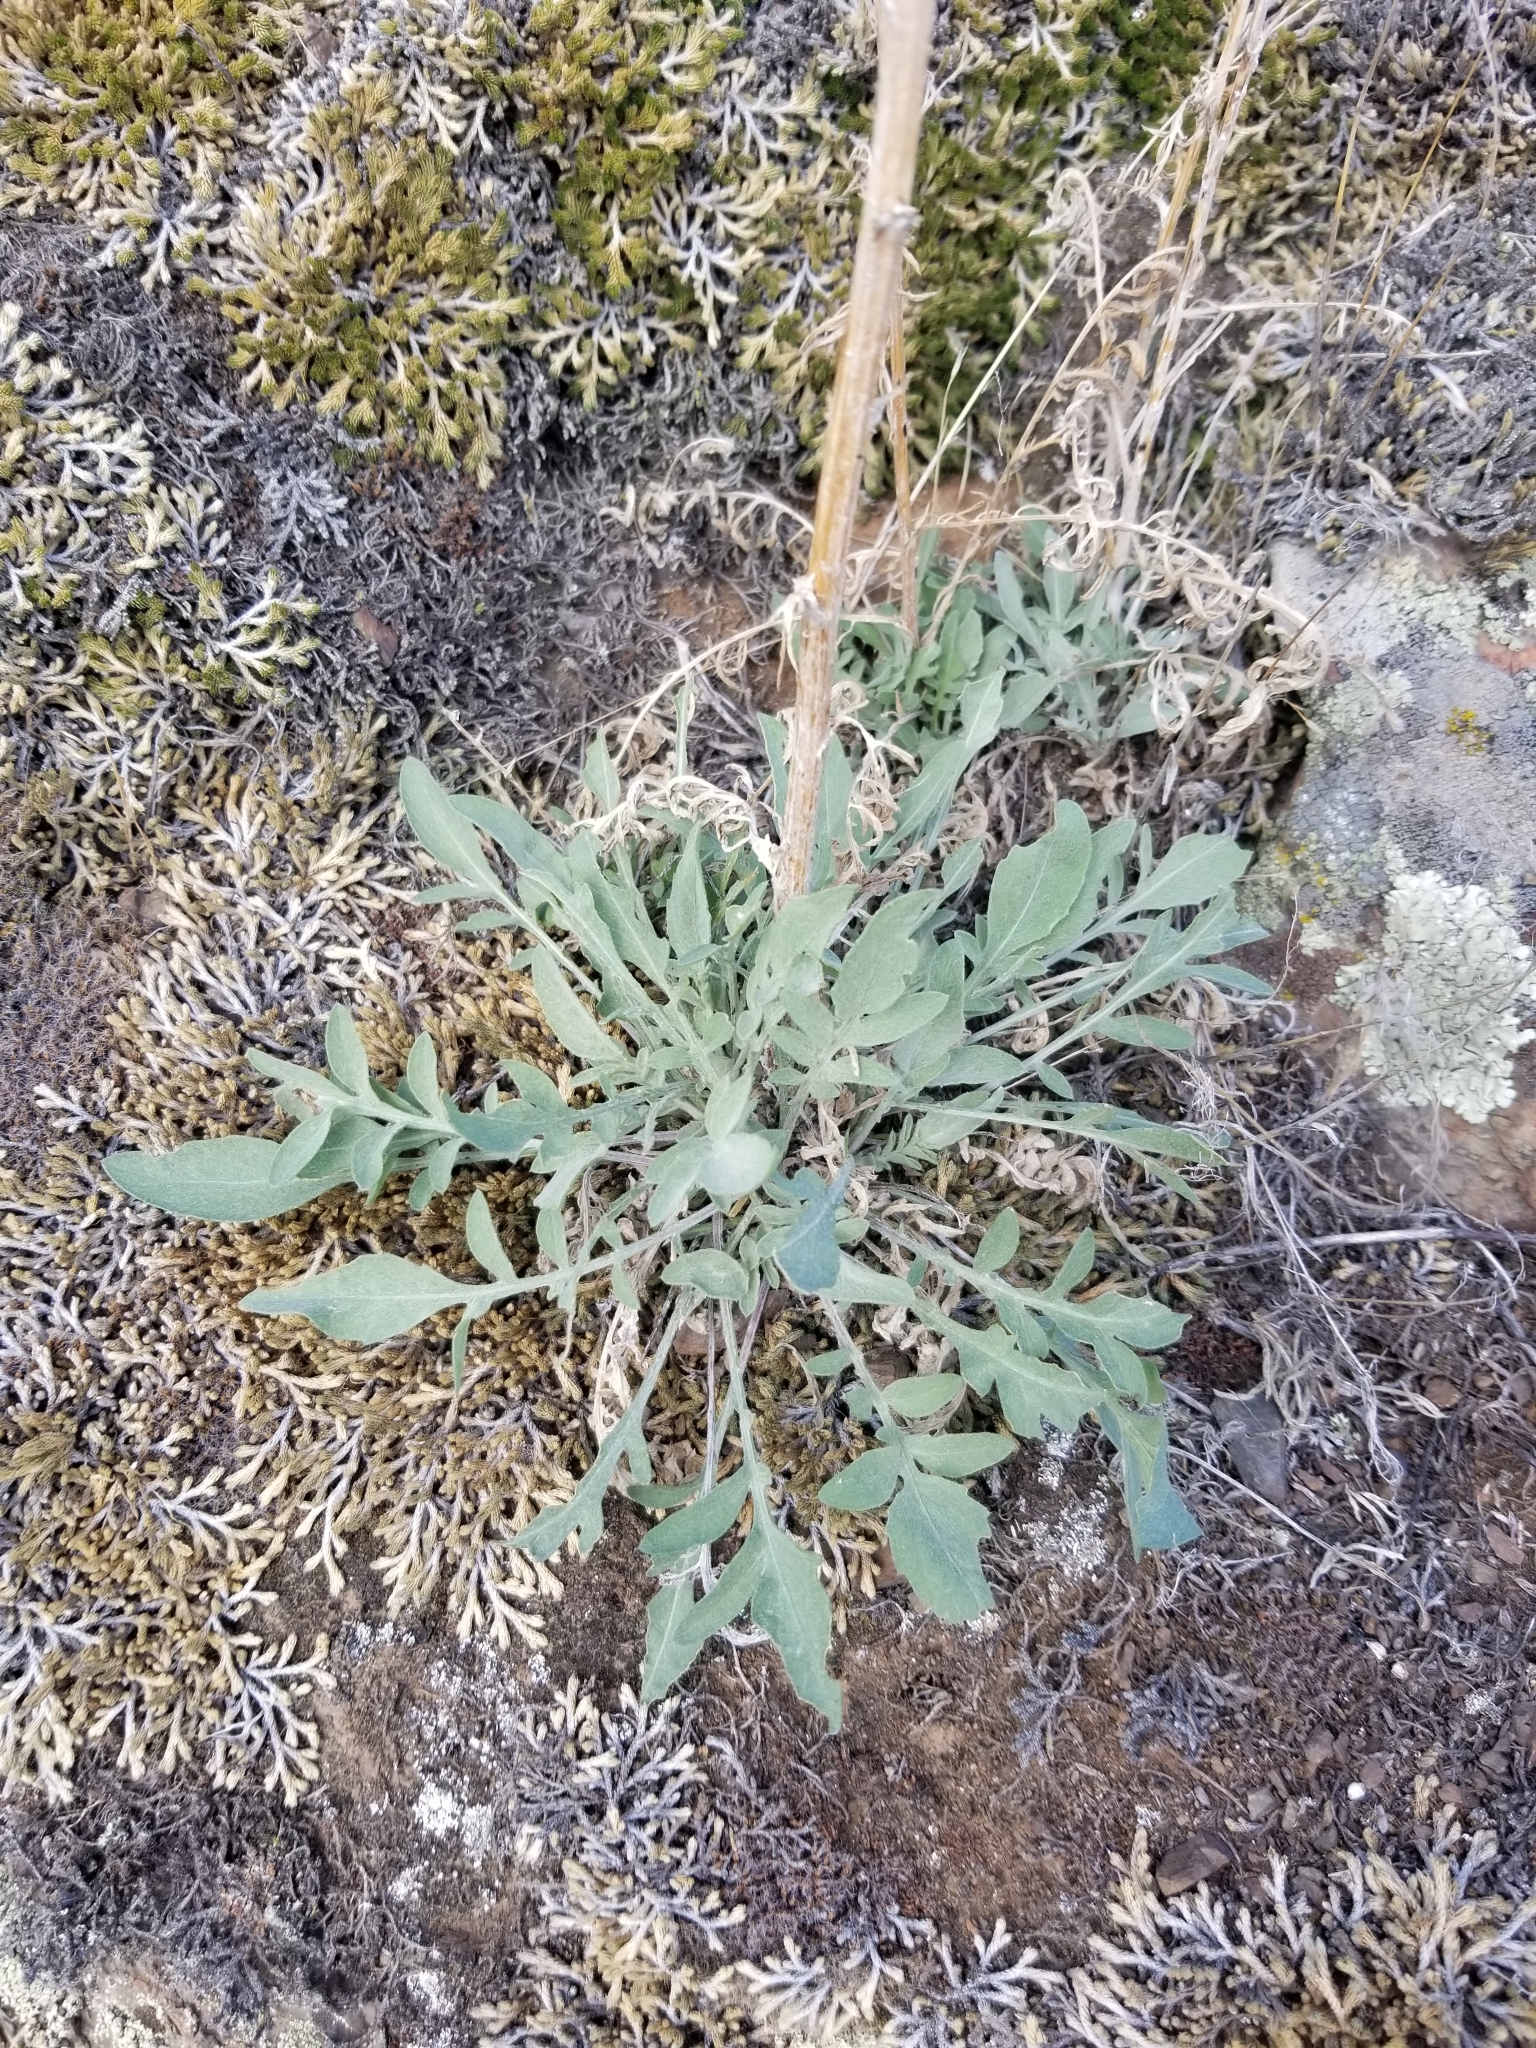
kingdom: Plantae
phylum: Tracheophyta
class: Magnoliopsida
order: Asterales
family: Asteraceae
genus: Centaurea
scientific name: Centaurea stoebe
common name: Spotted knapweed
